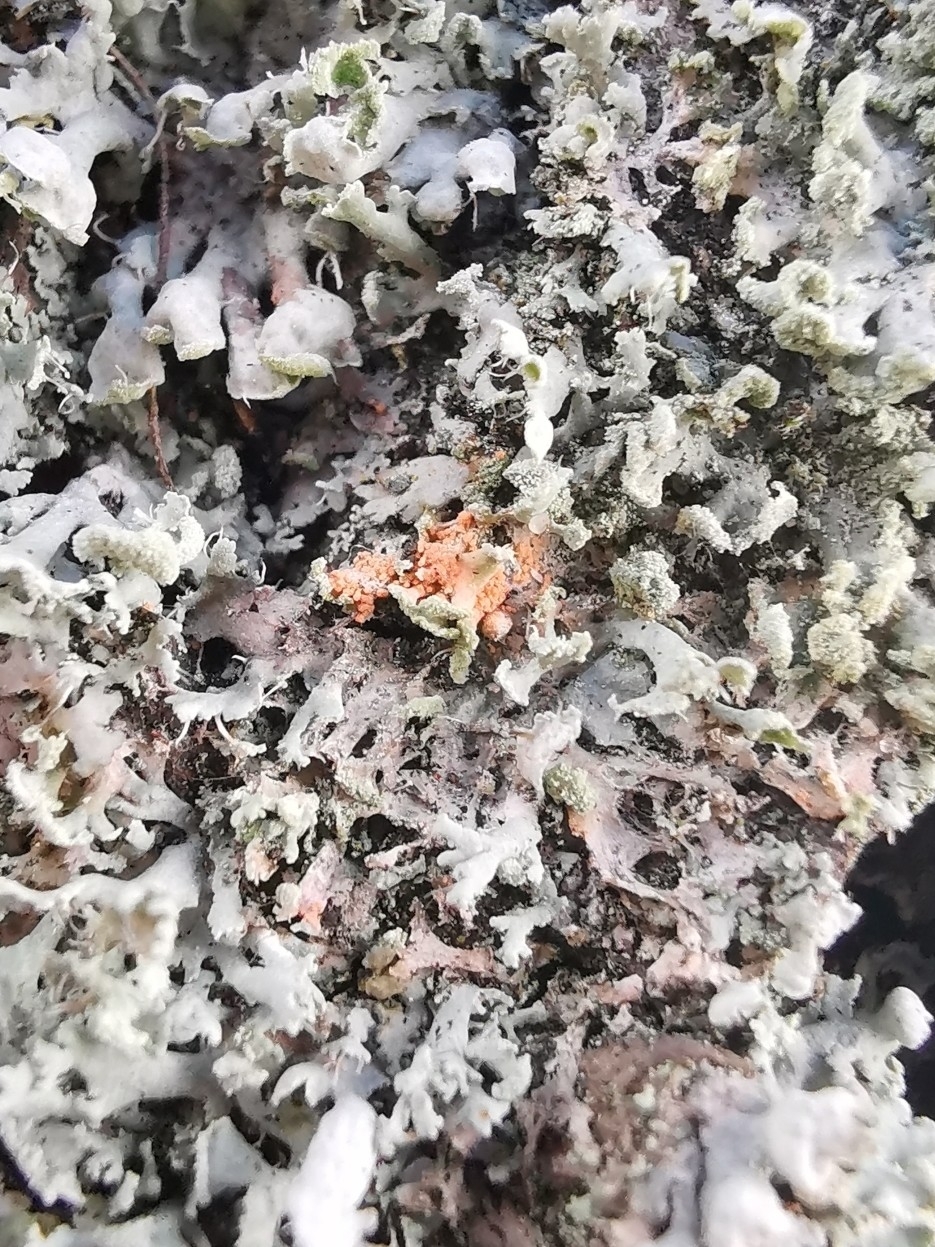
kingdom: Fungi
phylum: Basidiomycota
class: Agaricomycetes
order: Corticiales
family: Corticiaceae
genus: Erythricium
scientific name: Erythricium aurantiacum
